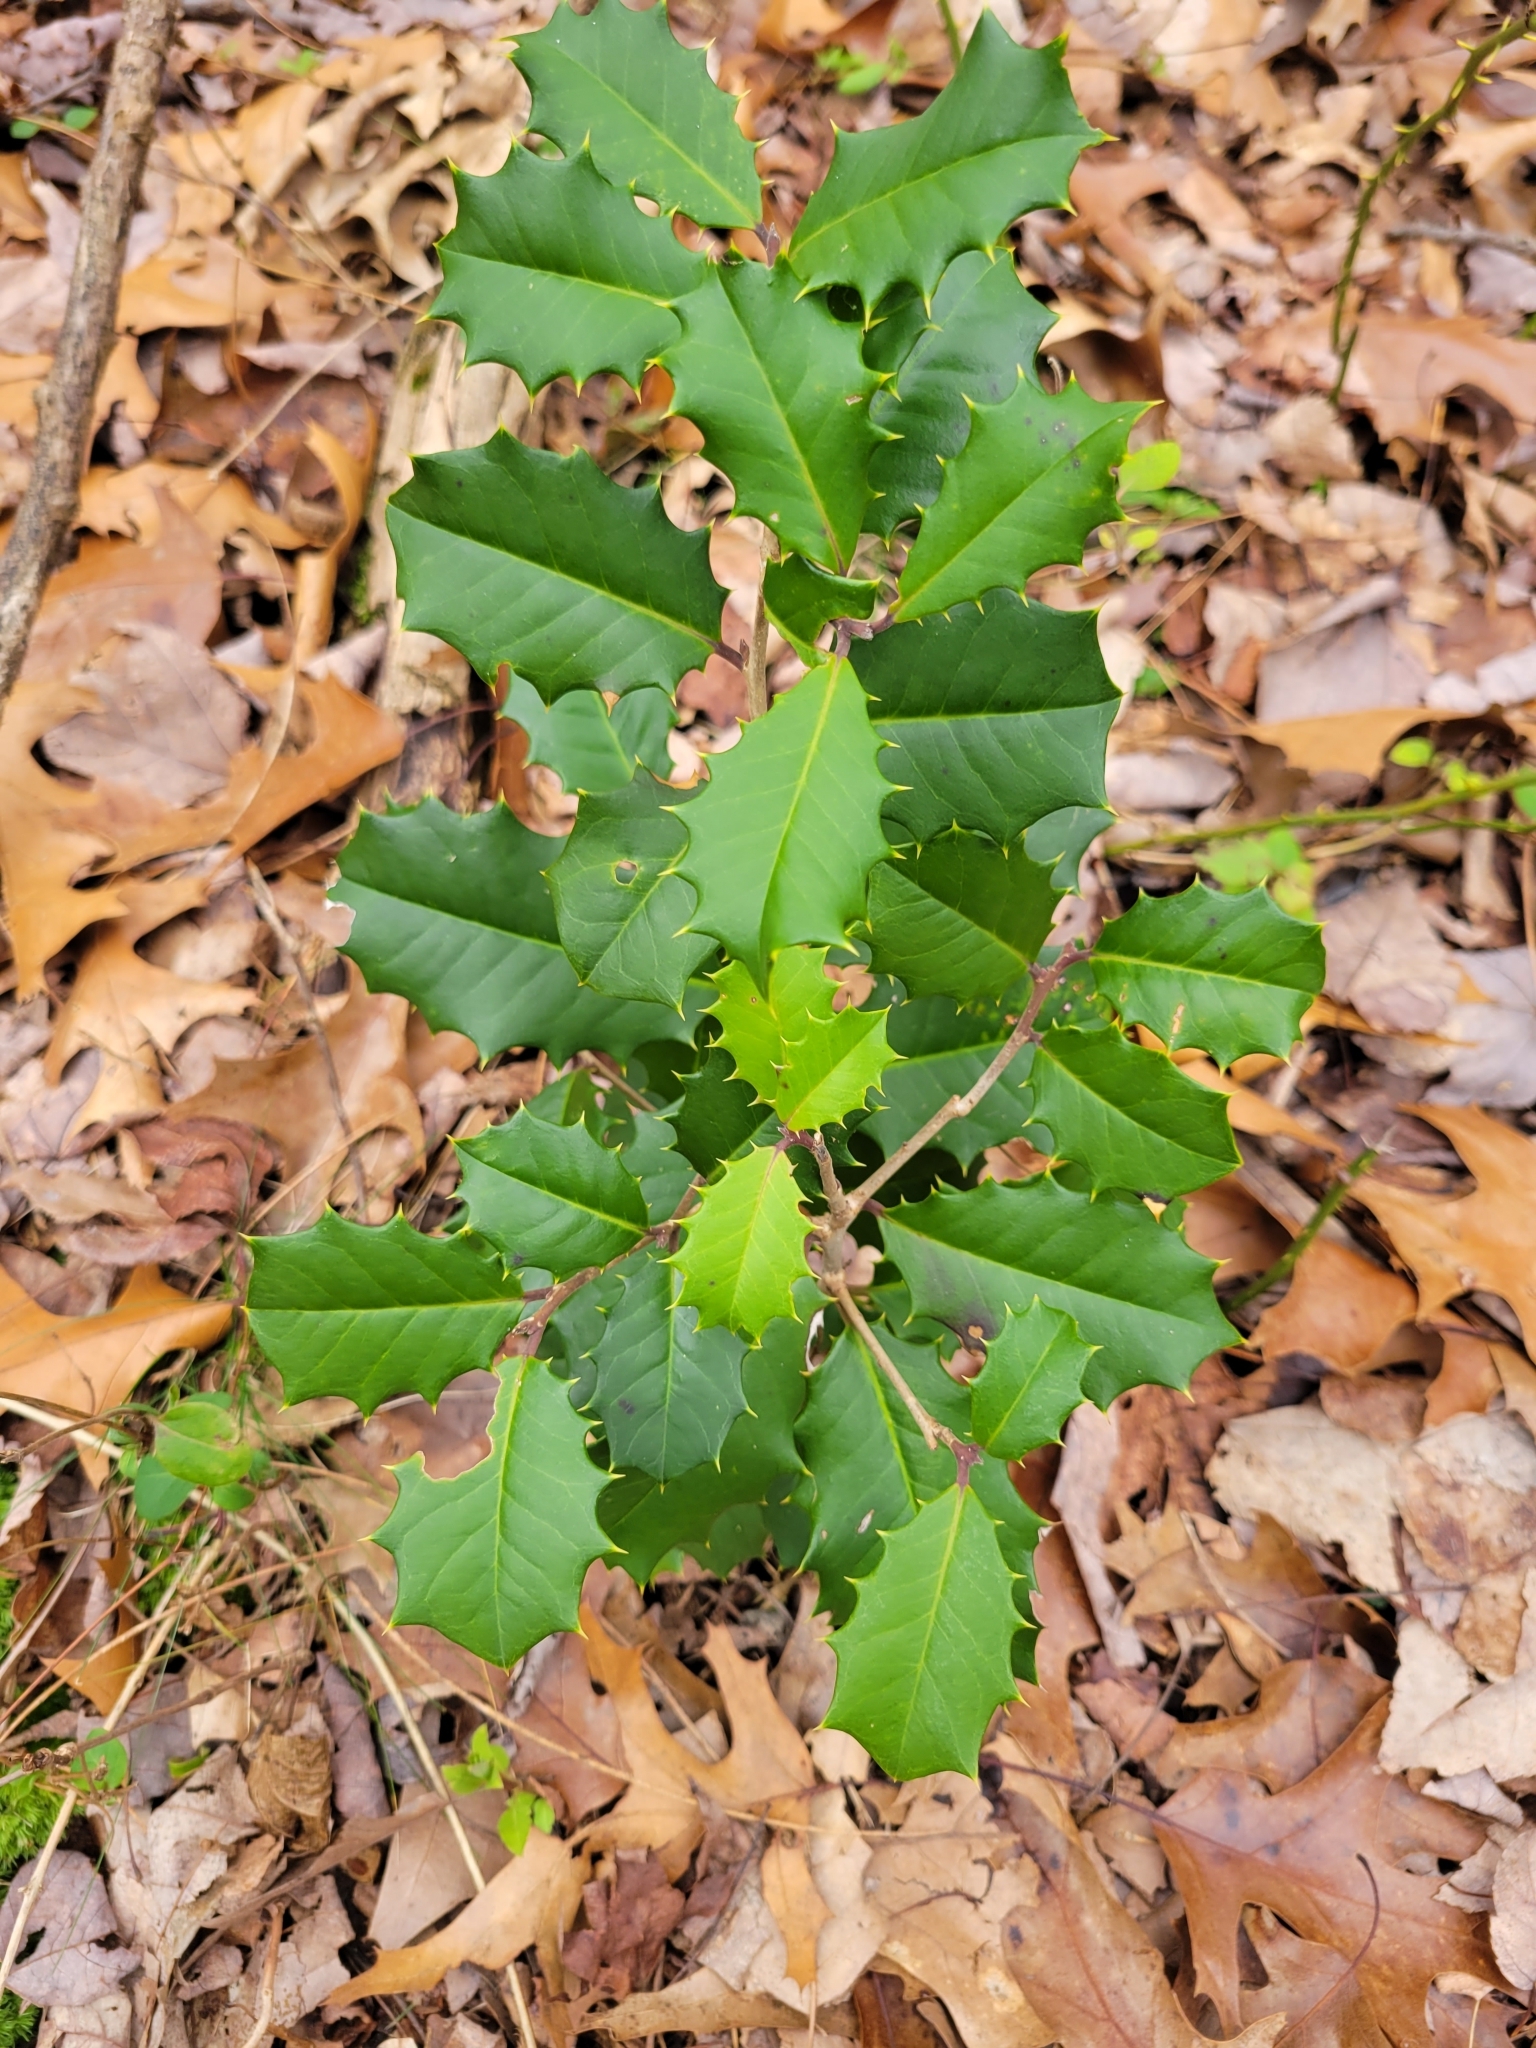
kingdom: Plantae
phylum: Tracheophyta
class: Magnoliopsida
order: Aquifoliales
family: Aquifoliaceae
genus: Ilex
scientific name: Ilex opaca
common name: American holly
